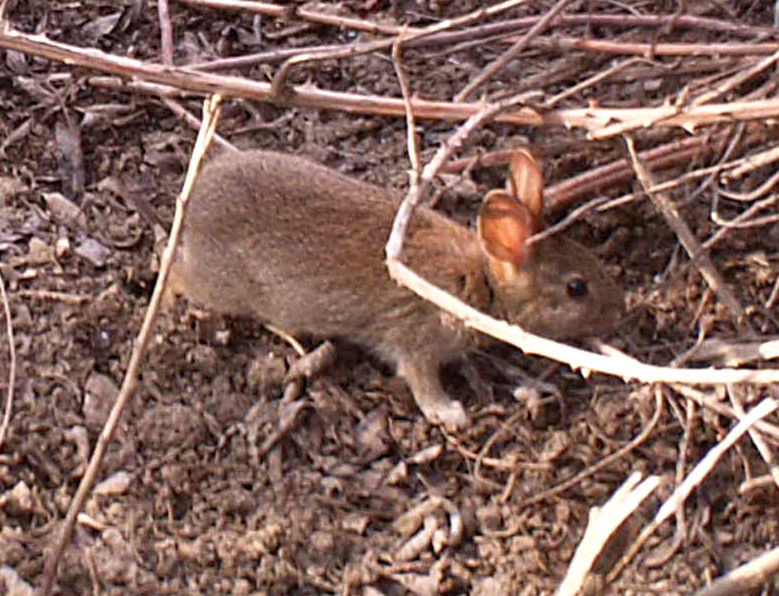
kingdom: Animalia
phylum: Chordata
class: Mammalia
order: Lagomorpha
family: Leporidae
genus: Sylvilagus
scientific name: Sylvilagus bachmani
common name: Brush rabbit
